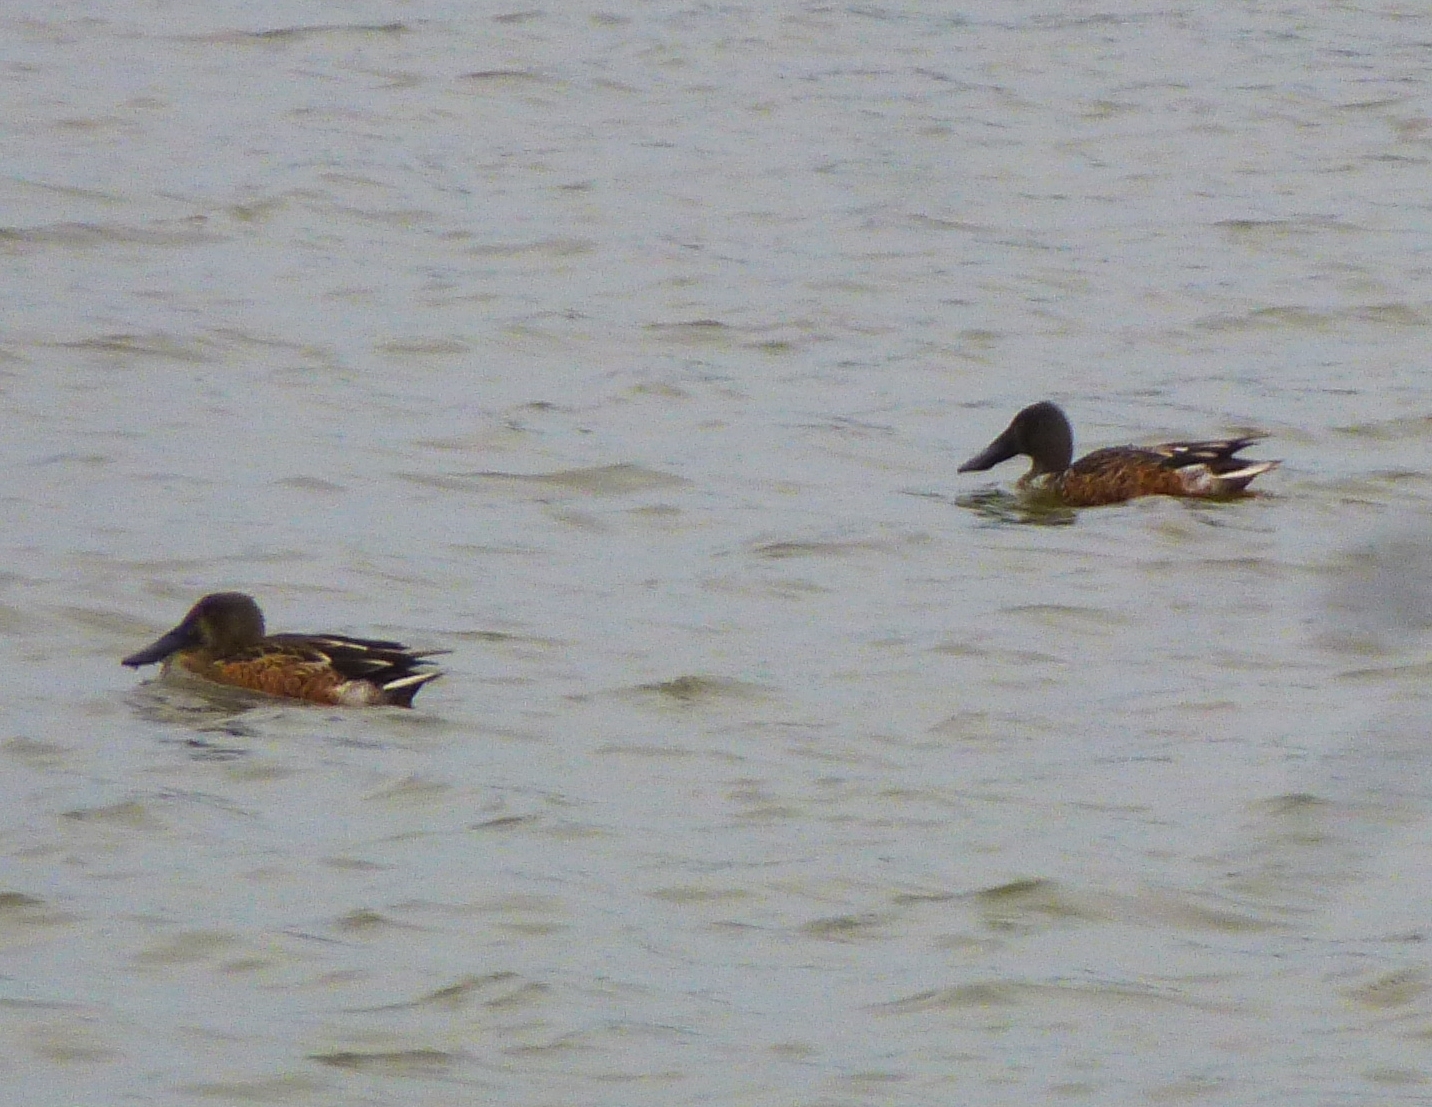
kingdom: Animalia
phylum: Chordata
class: Aves
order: Anseriformes
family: Anatidae
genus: Spatula
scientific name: Spatula clypeata
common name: Northern shoveler
